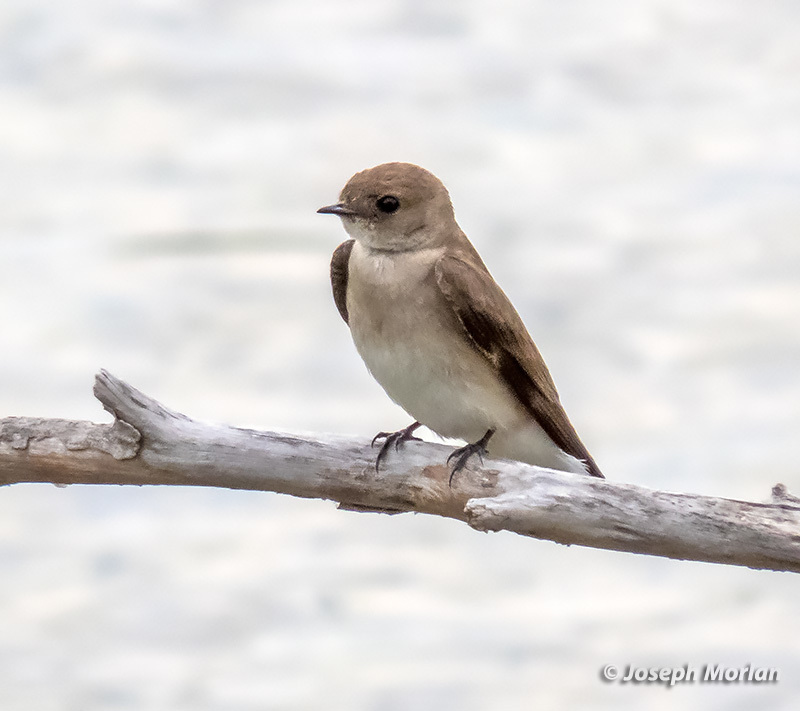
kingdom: Animalia
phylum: Chordata
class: Aves
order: Passeriformes
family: Hirundinidae
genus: Stelgidopteryx
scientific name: Stelgidopteryx serripennis
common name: Northern rough-winged swallow
